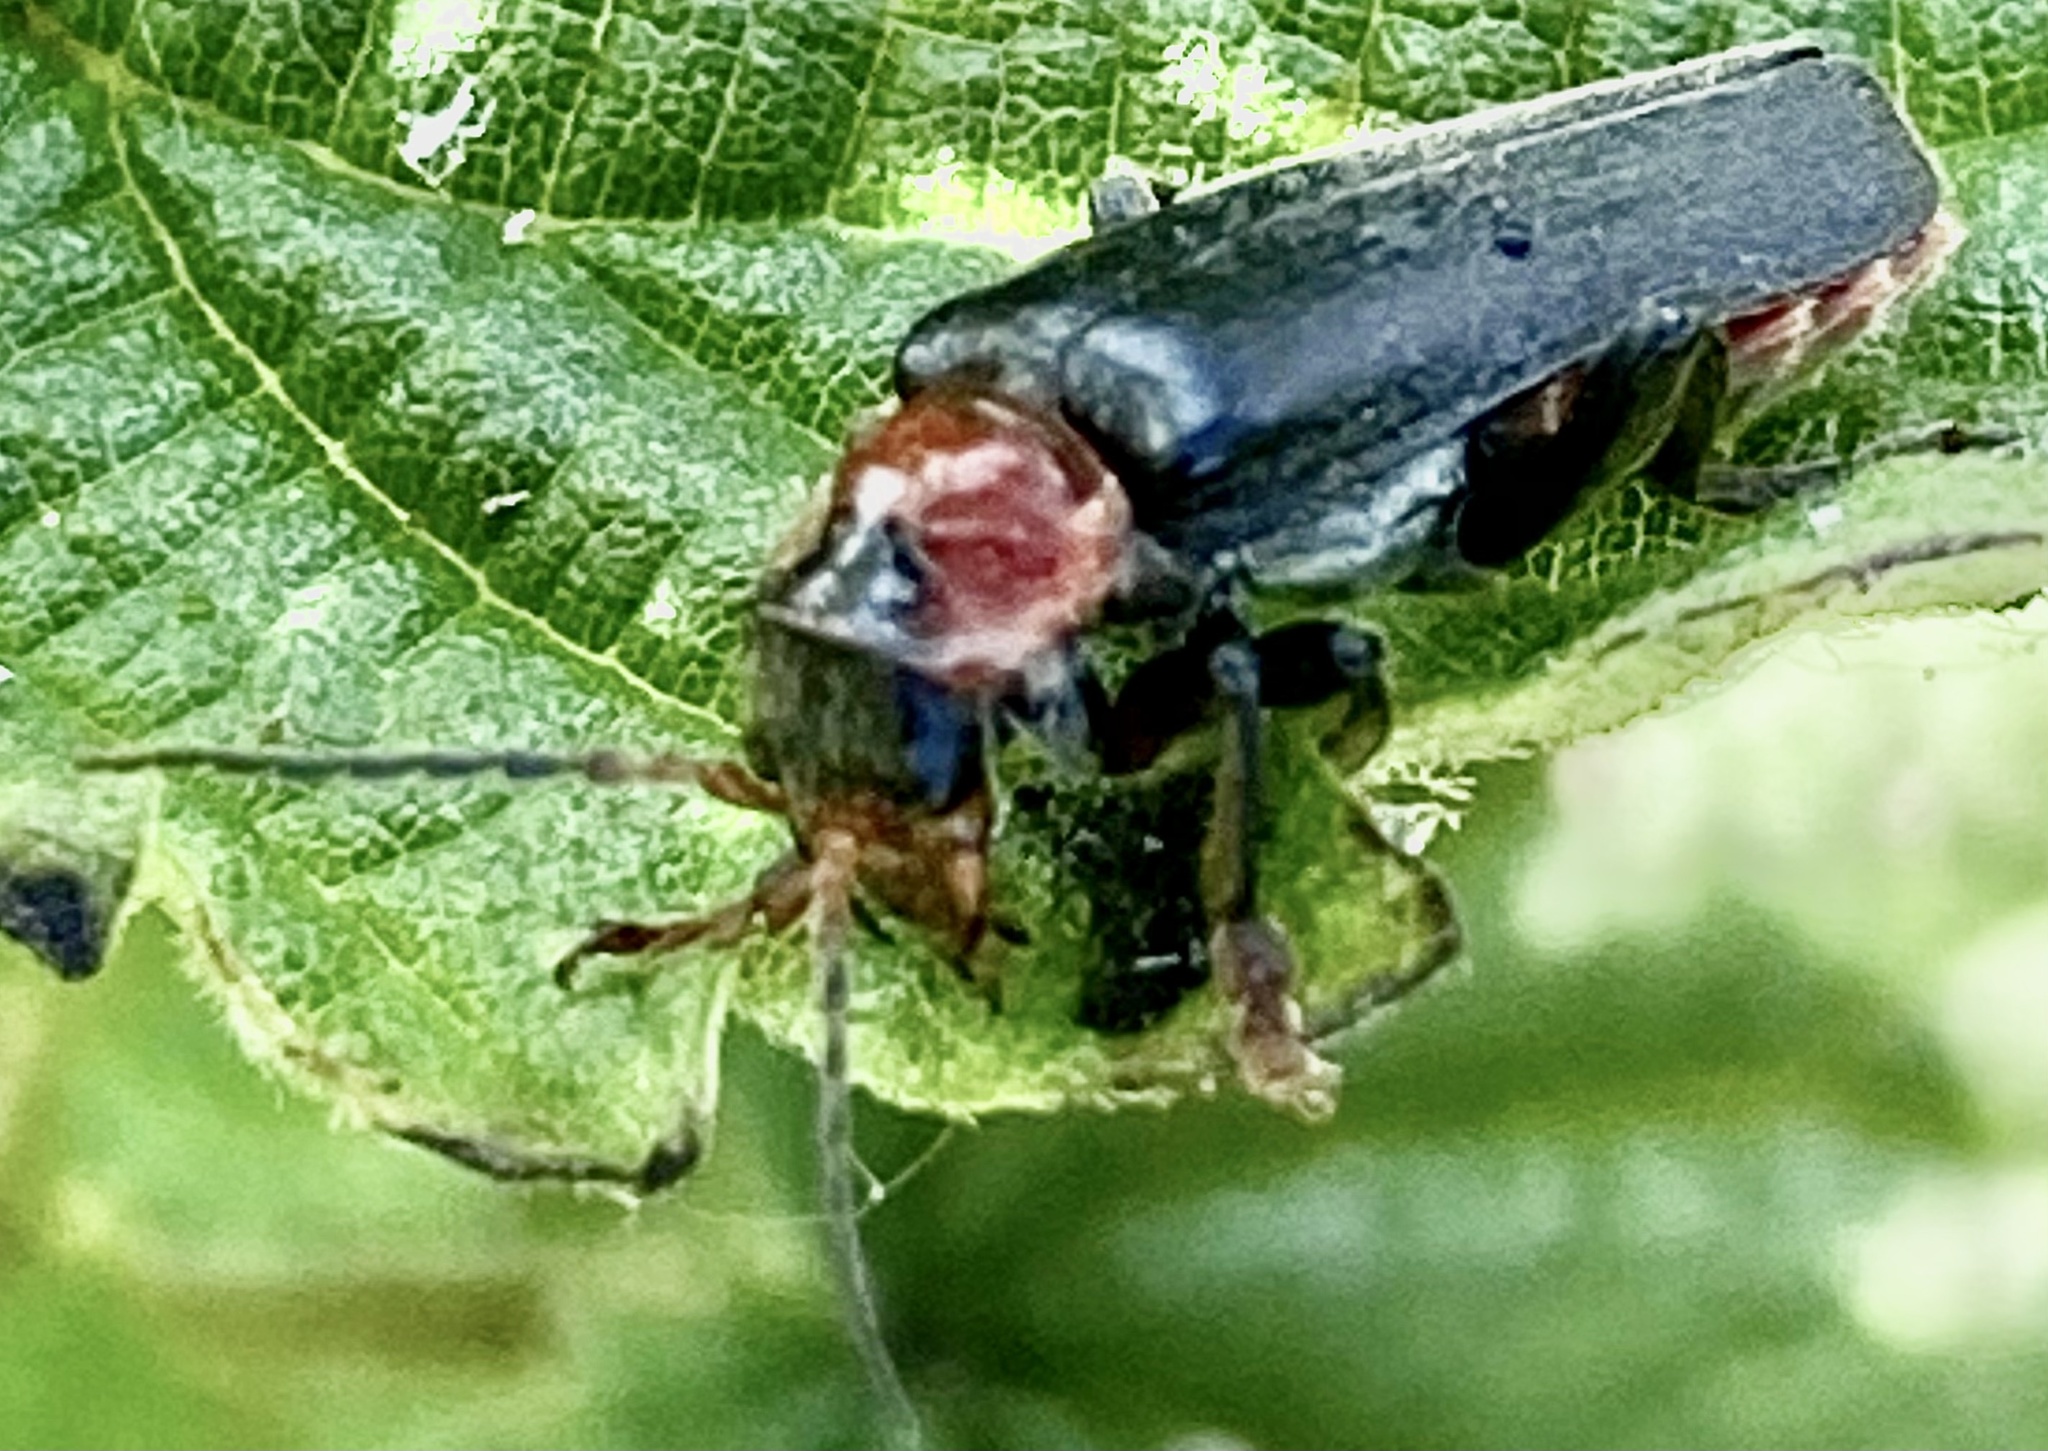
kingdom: Animalia
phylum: Arthropoda
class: Insecta
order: Coleoptera
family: Cantharidae
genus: Cantharis
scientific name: Cantharis fusca
